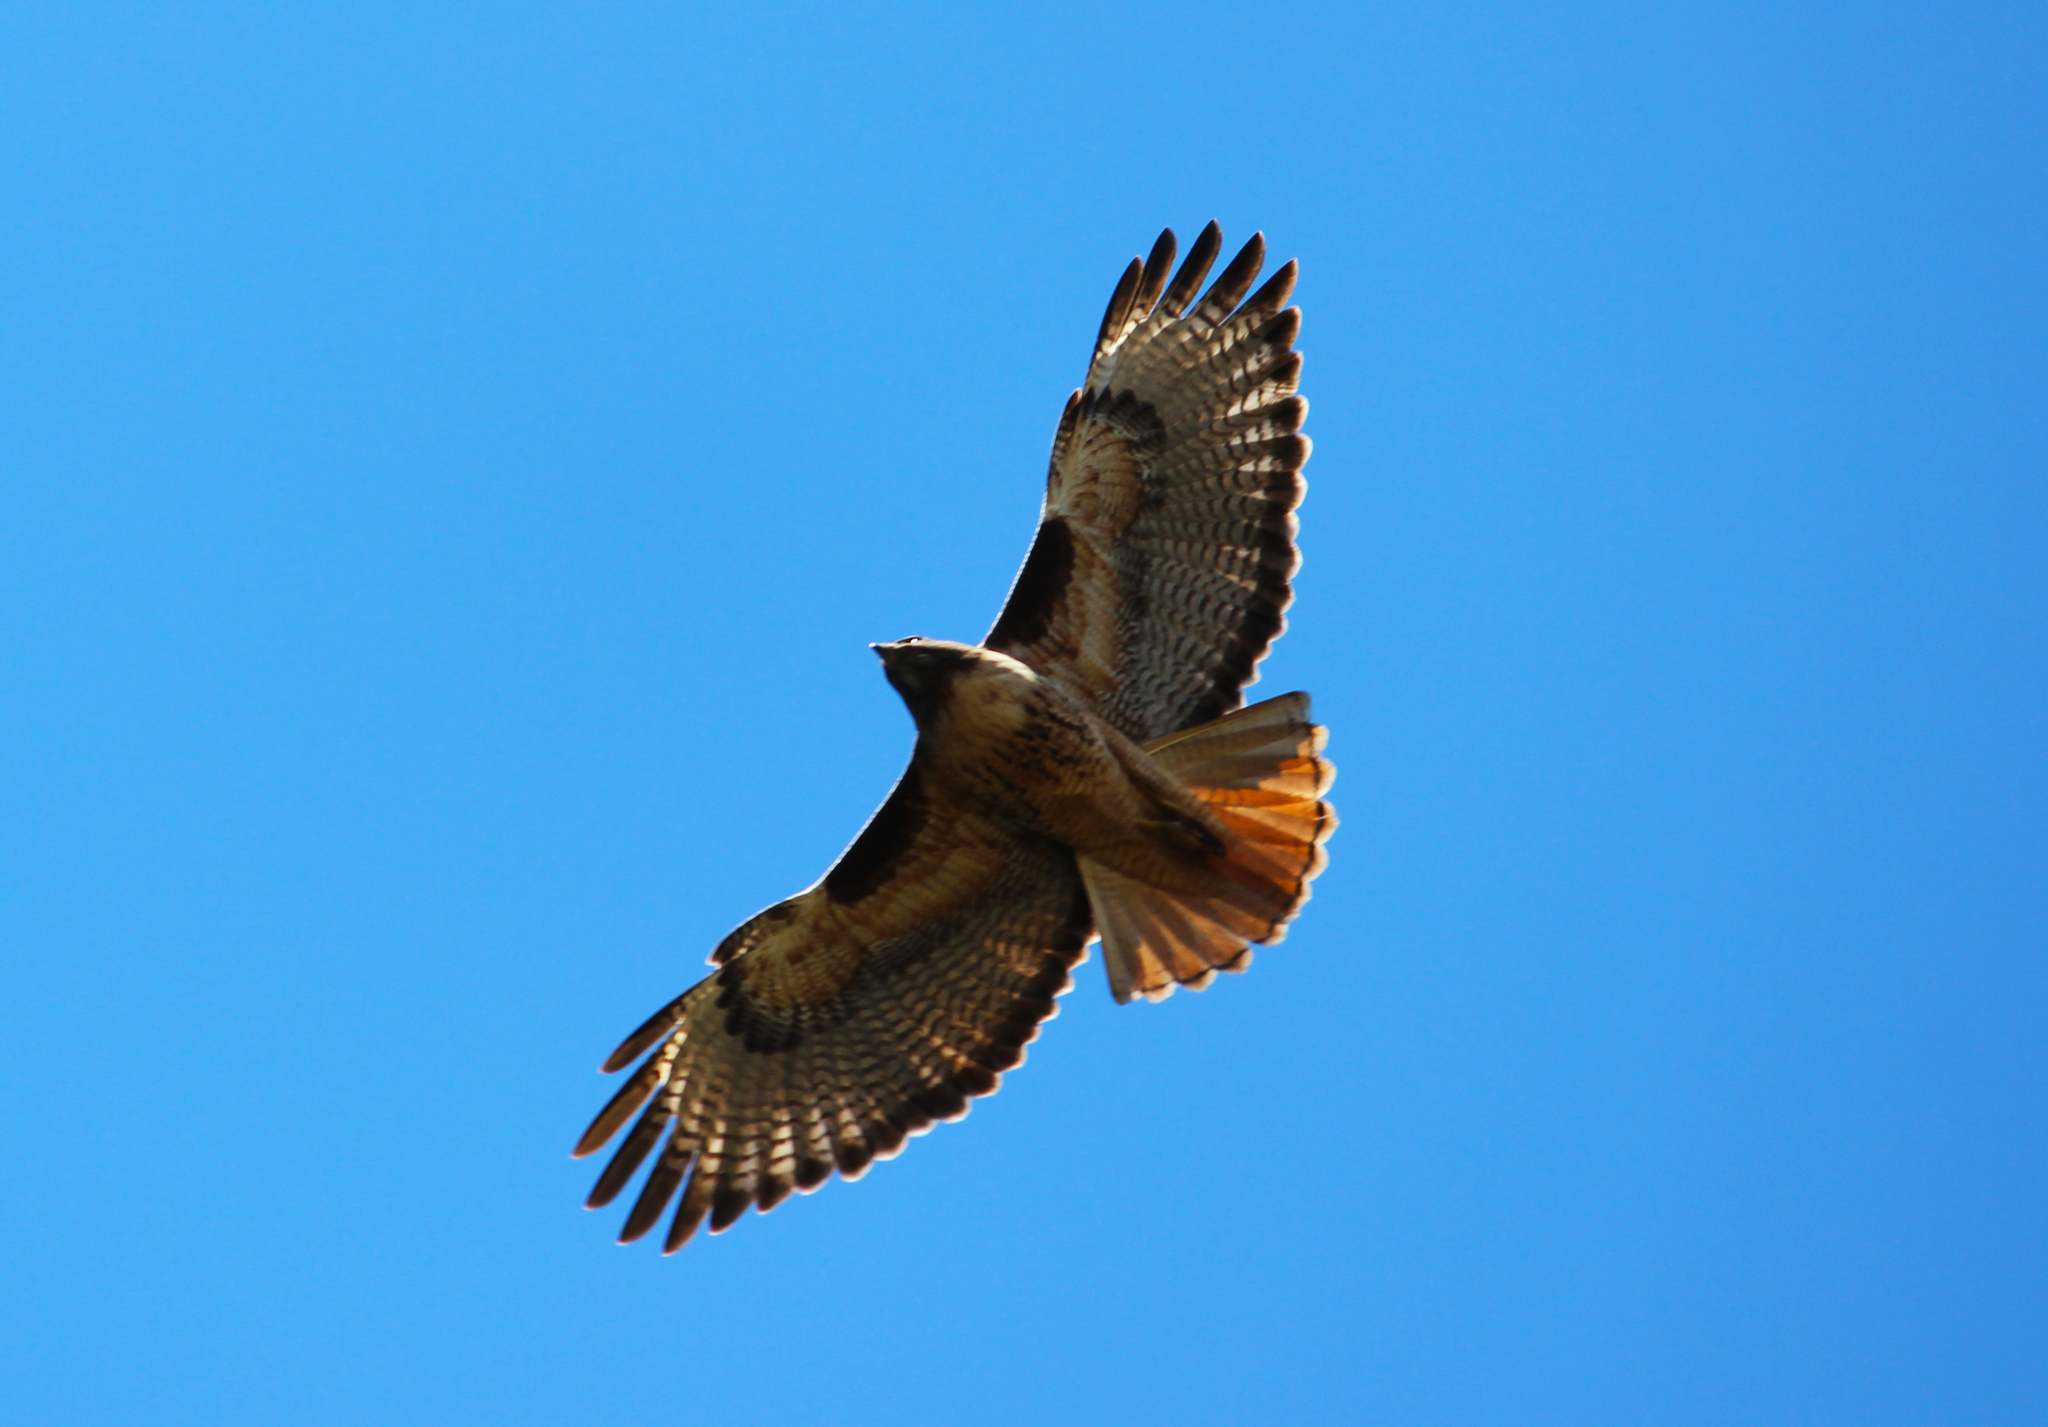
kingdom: Animalia
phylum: Chordata
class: Aves
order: Accipitriformes
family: Accipitridae
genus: Buteo
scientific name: Buteo jamaicensis
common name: Red-tailed hawk
